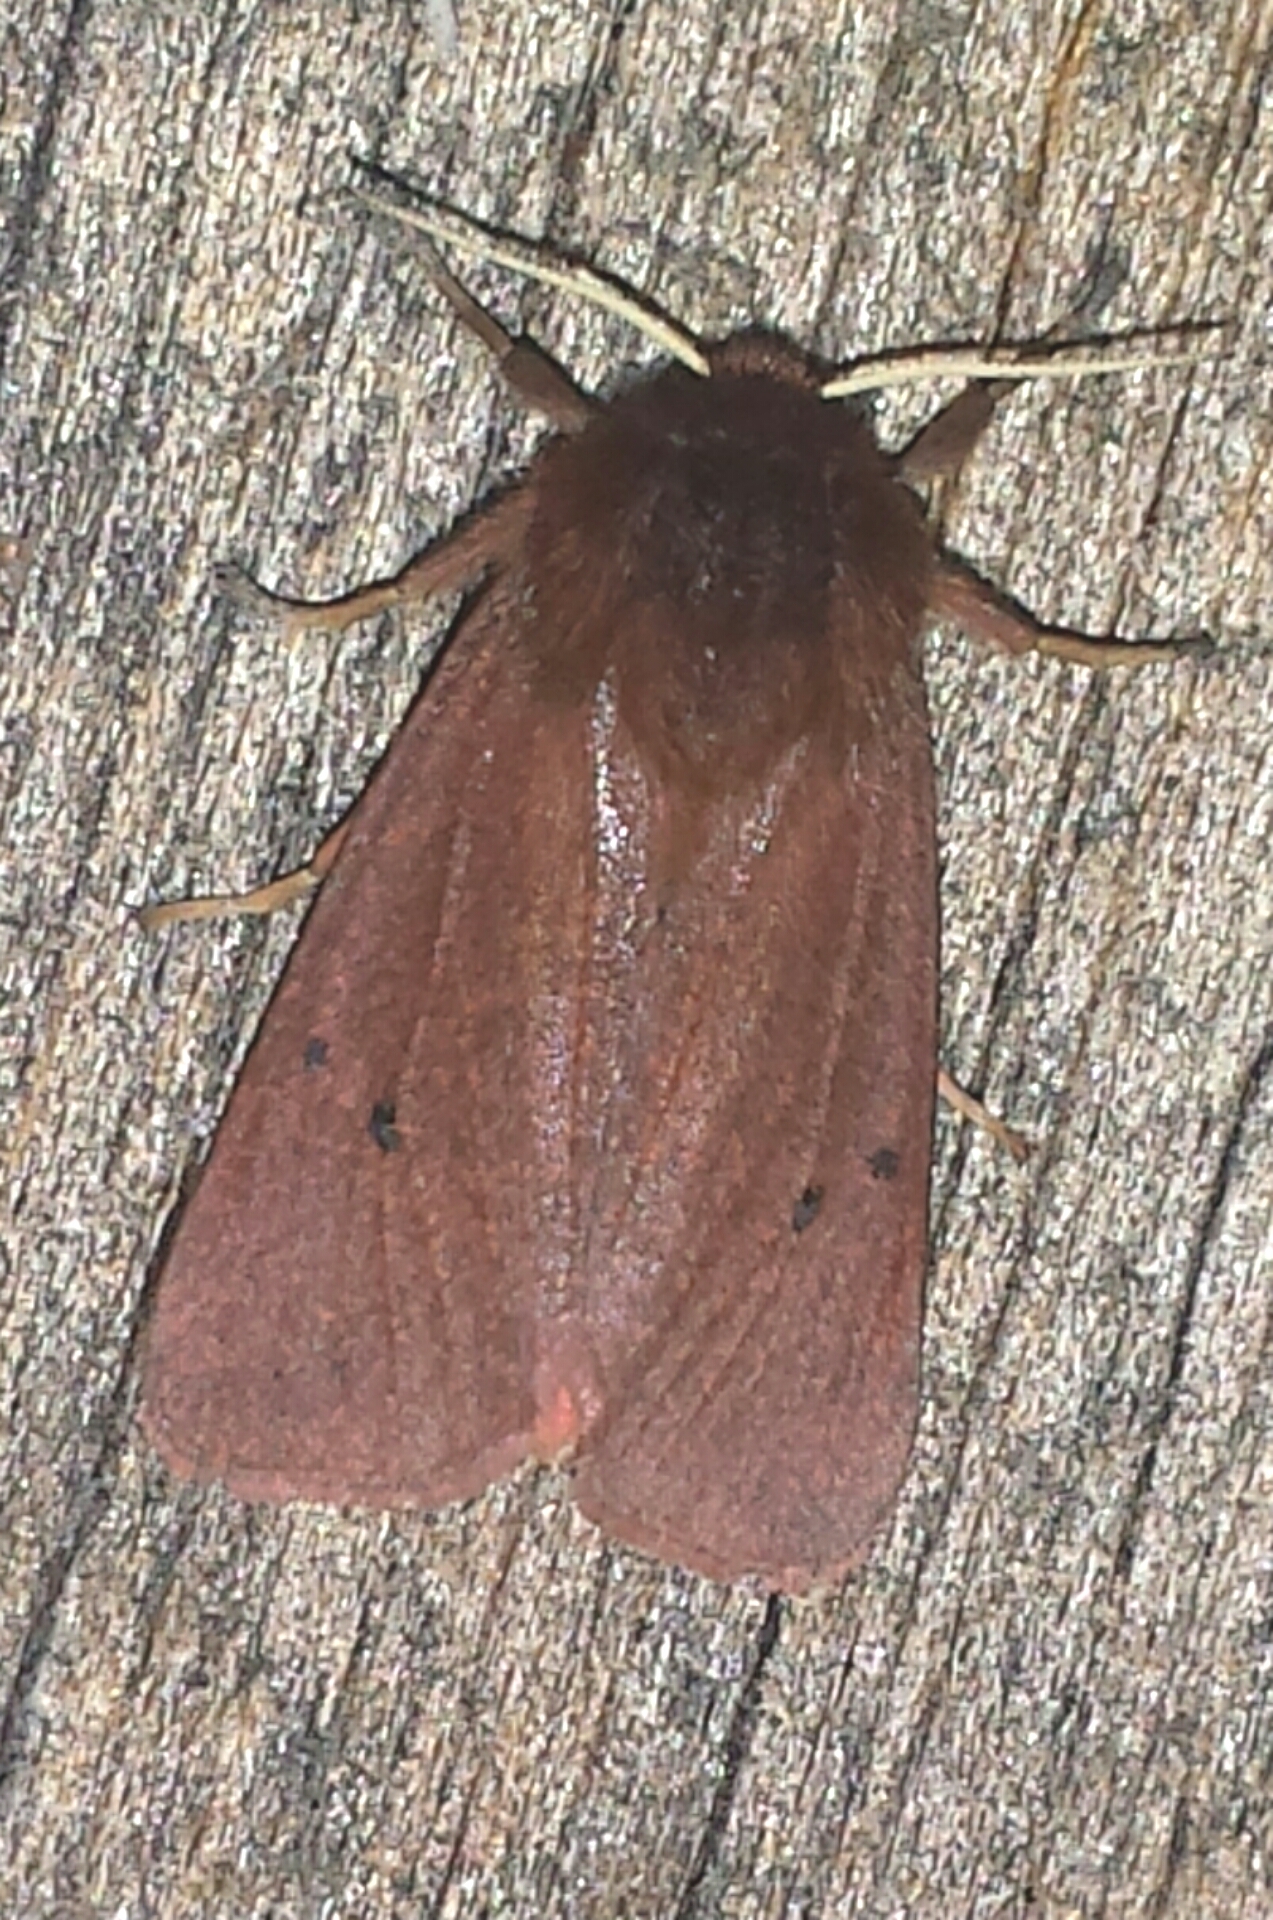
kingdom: Animalia
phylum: Arthropoda
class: Insecta
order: Lepidoptera
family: Erebidae
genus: Phragmatobia
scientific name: Phragmatobia fuliginosa
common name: Ruby tiger
